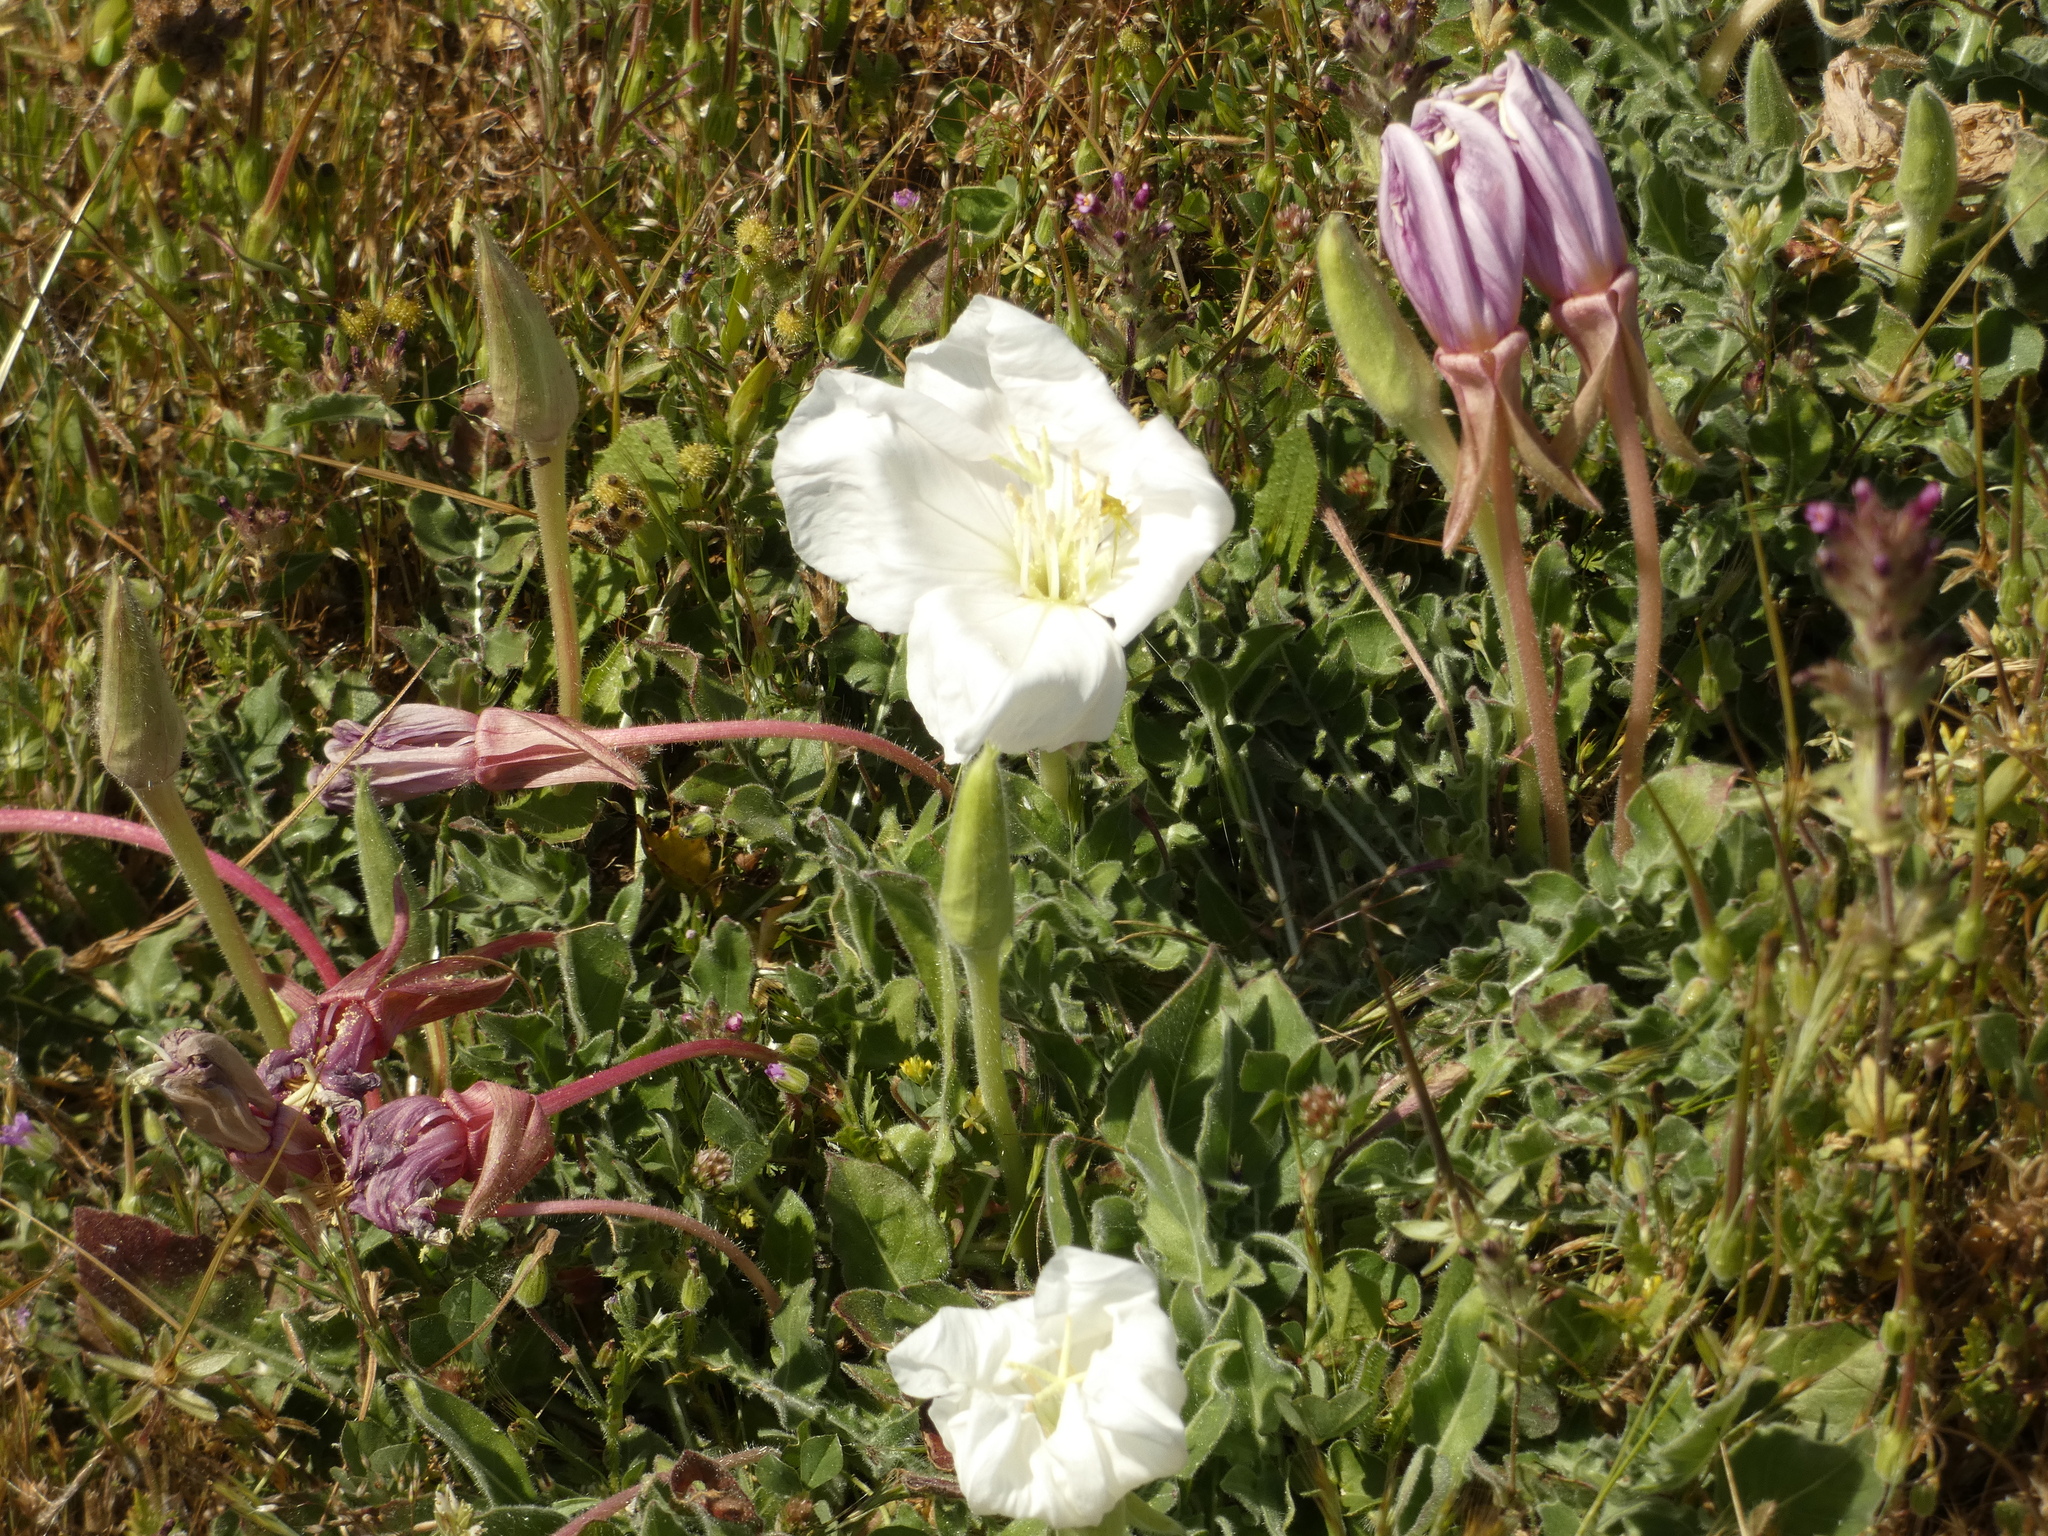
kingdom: Plantae
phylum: Tracheophyta
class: Magnoliopsida
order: Myrtales
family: Onagraceae
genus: Oenothera
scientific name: Oenothera acaulis
